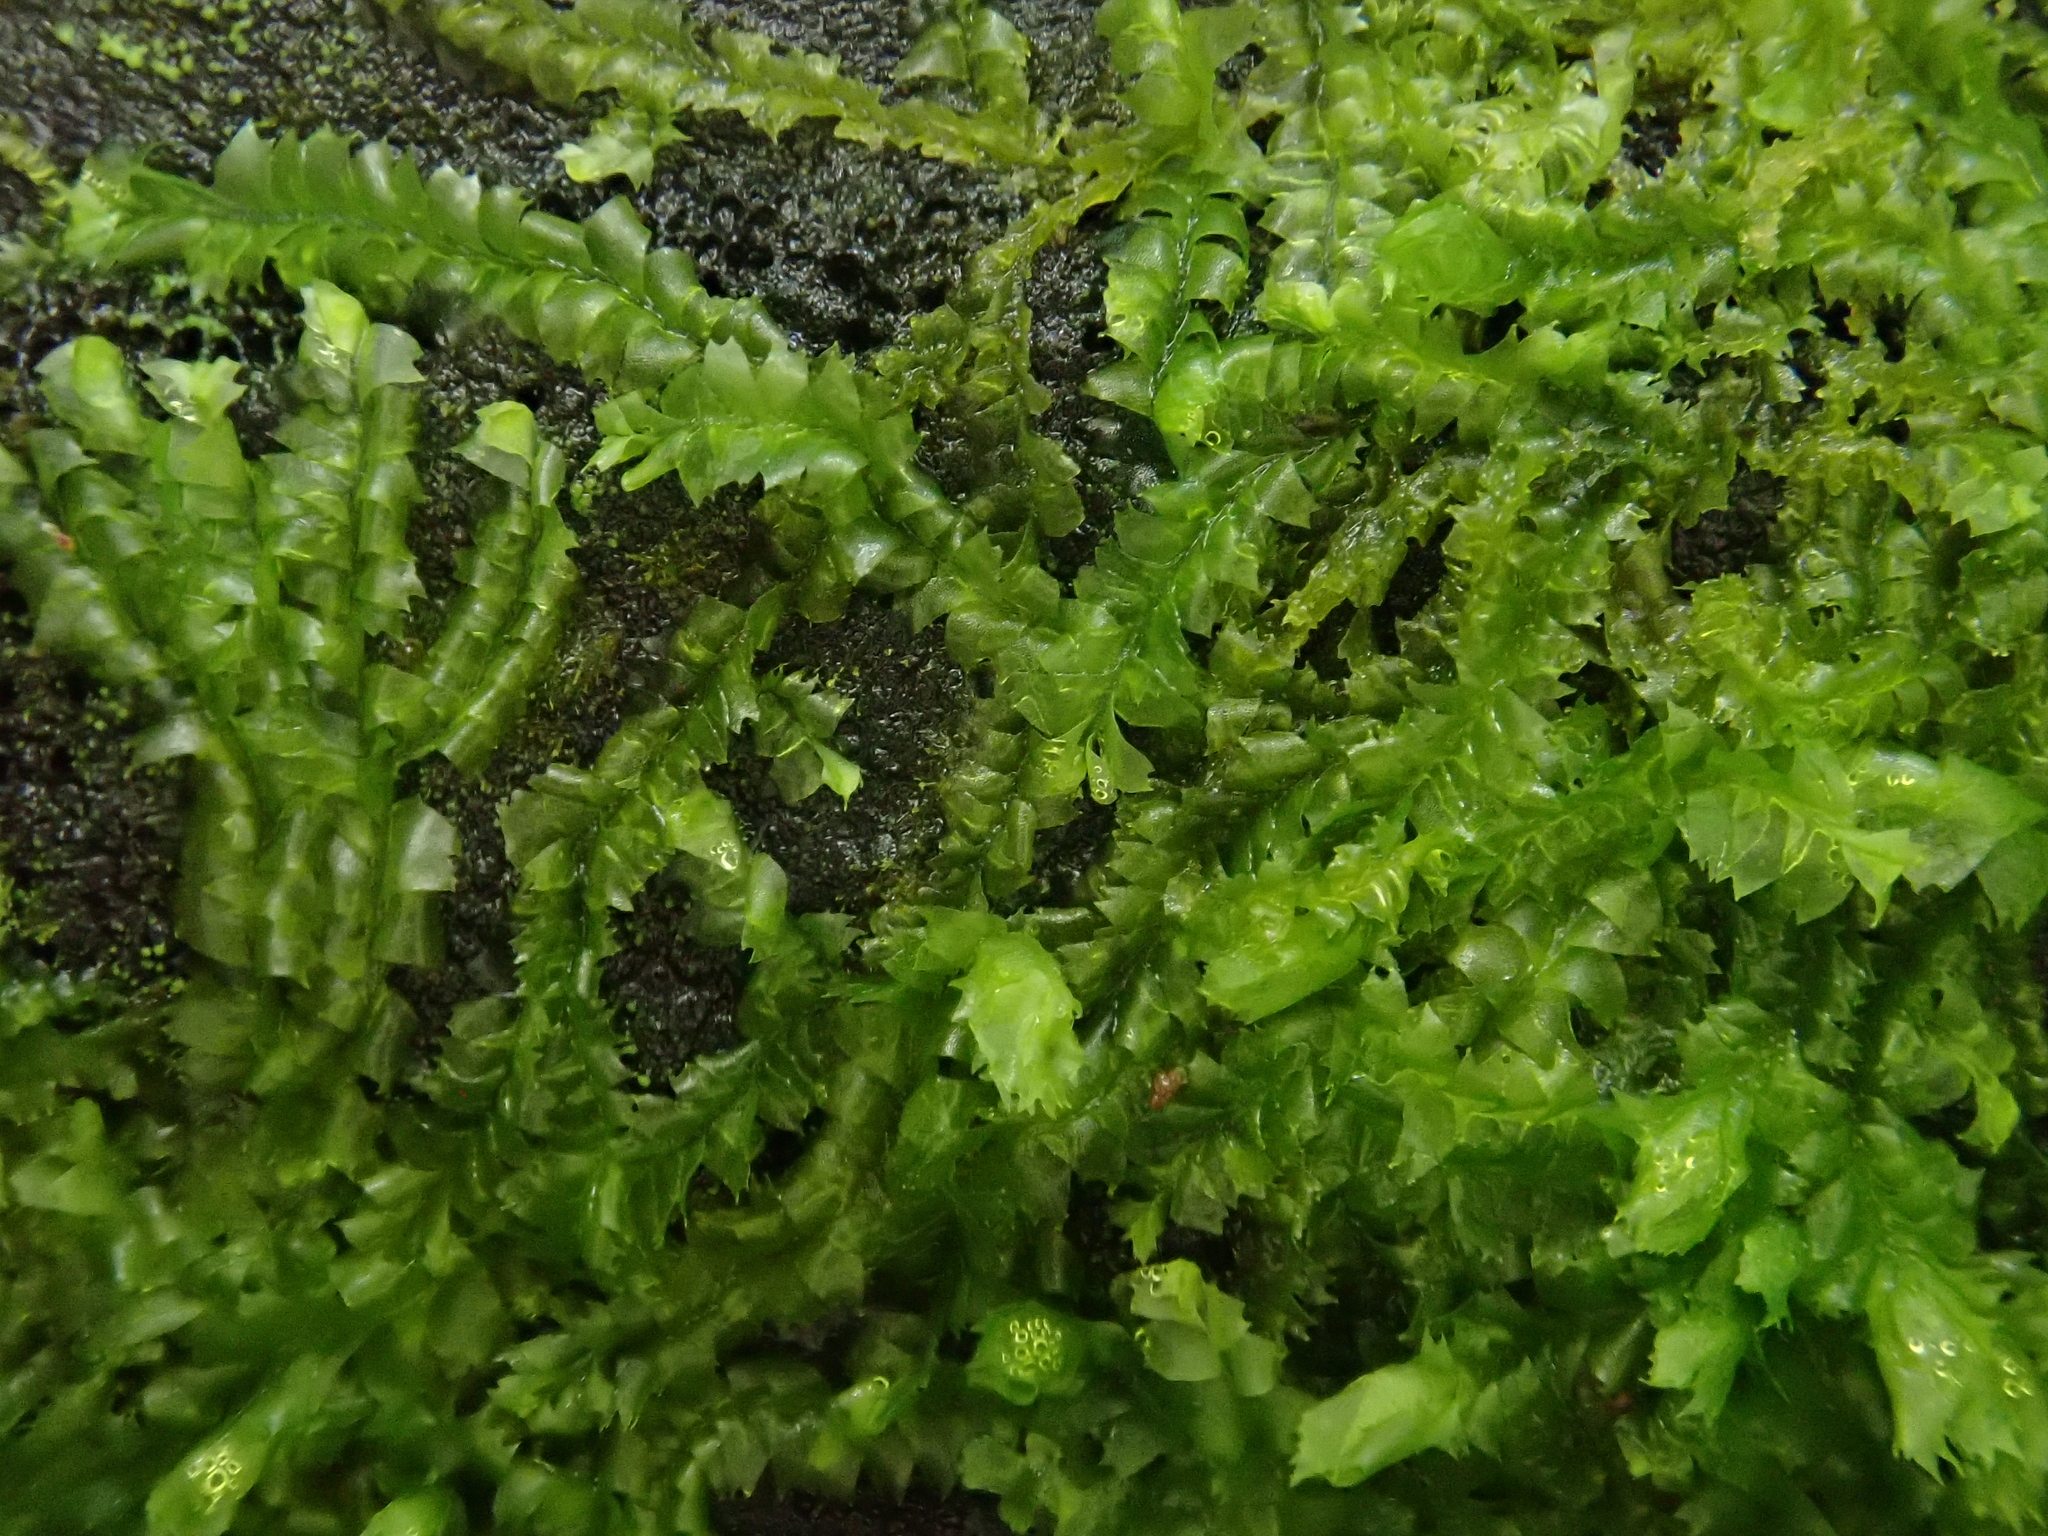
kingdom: Plantae
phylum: Marchantiophyta
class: Jungermanniopsida
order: Jungermanniales
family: Lophocoleaceae
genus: Lophocolea
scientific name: Lophocolea heterophylla
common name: Variable-leaved crestwort
